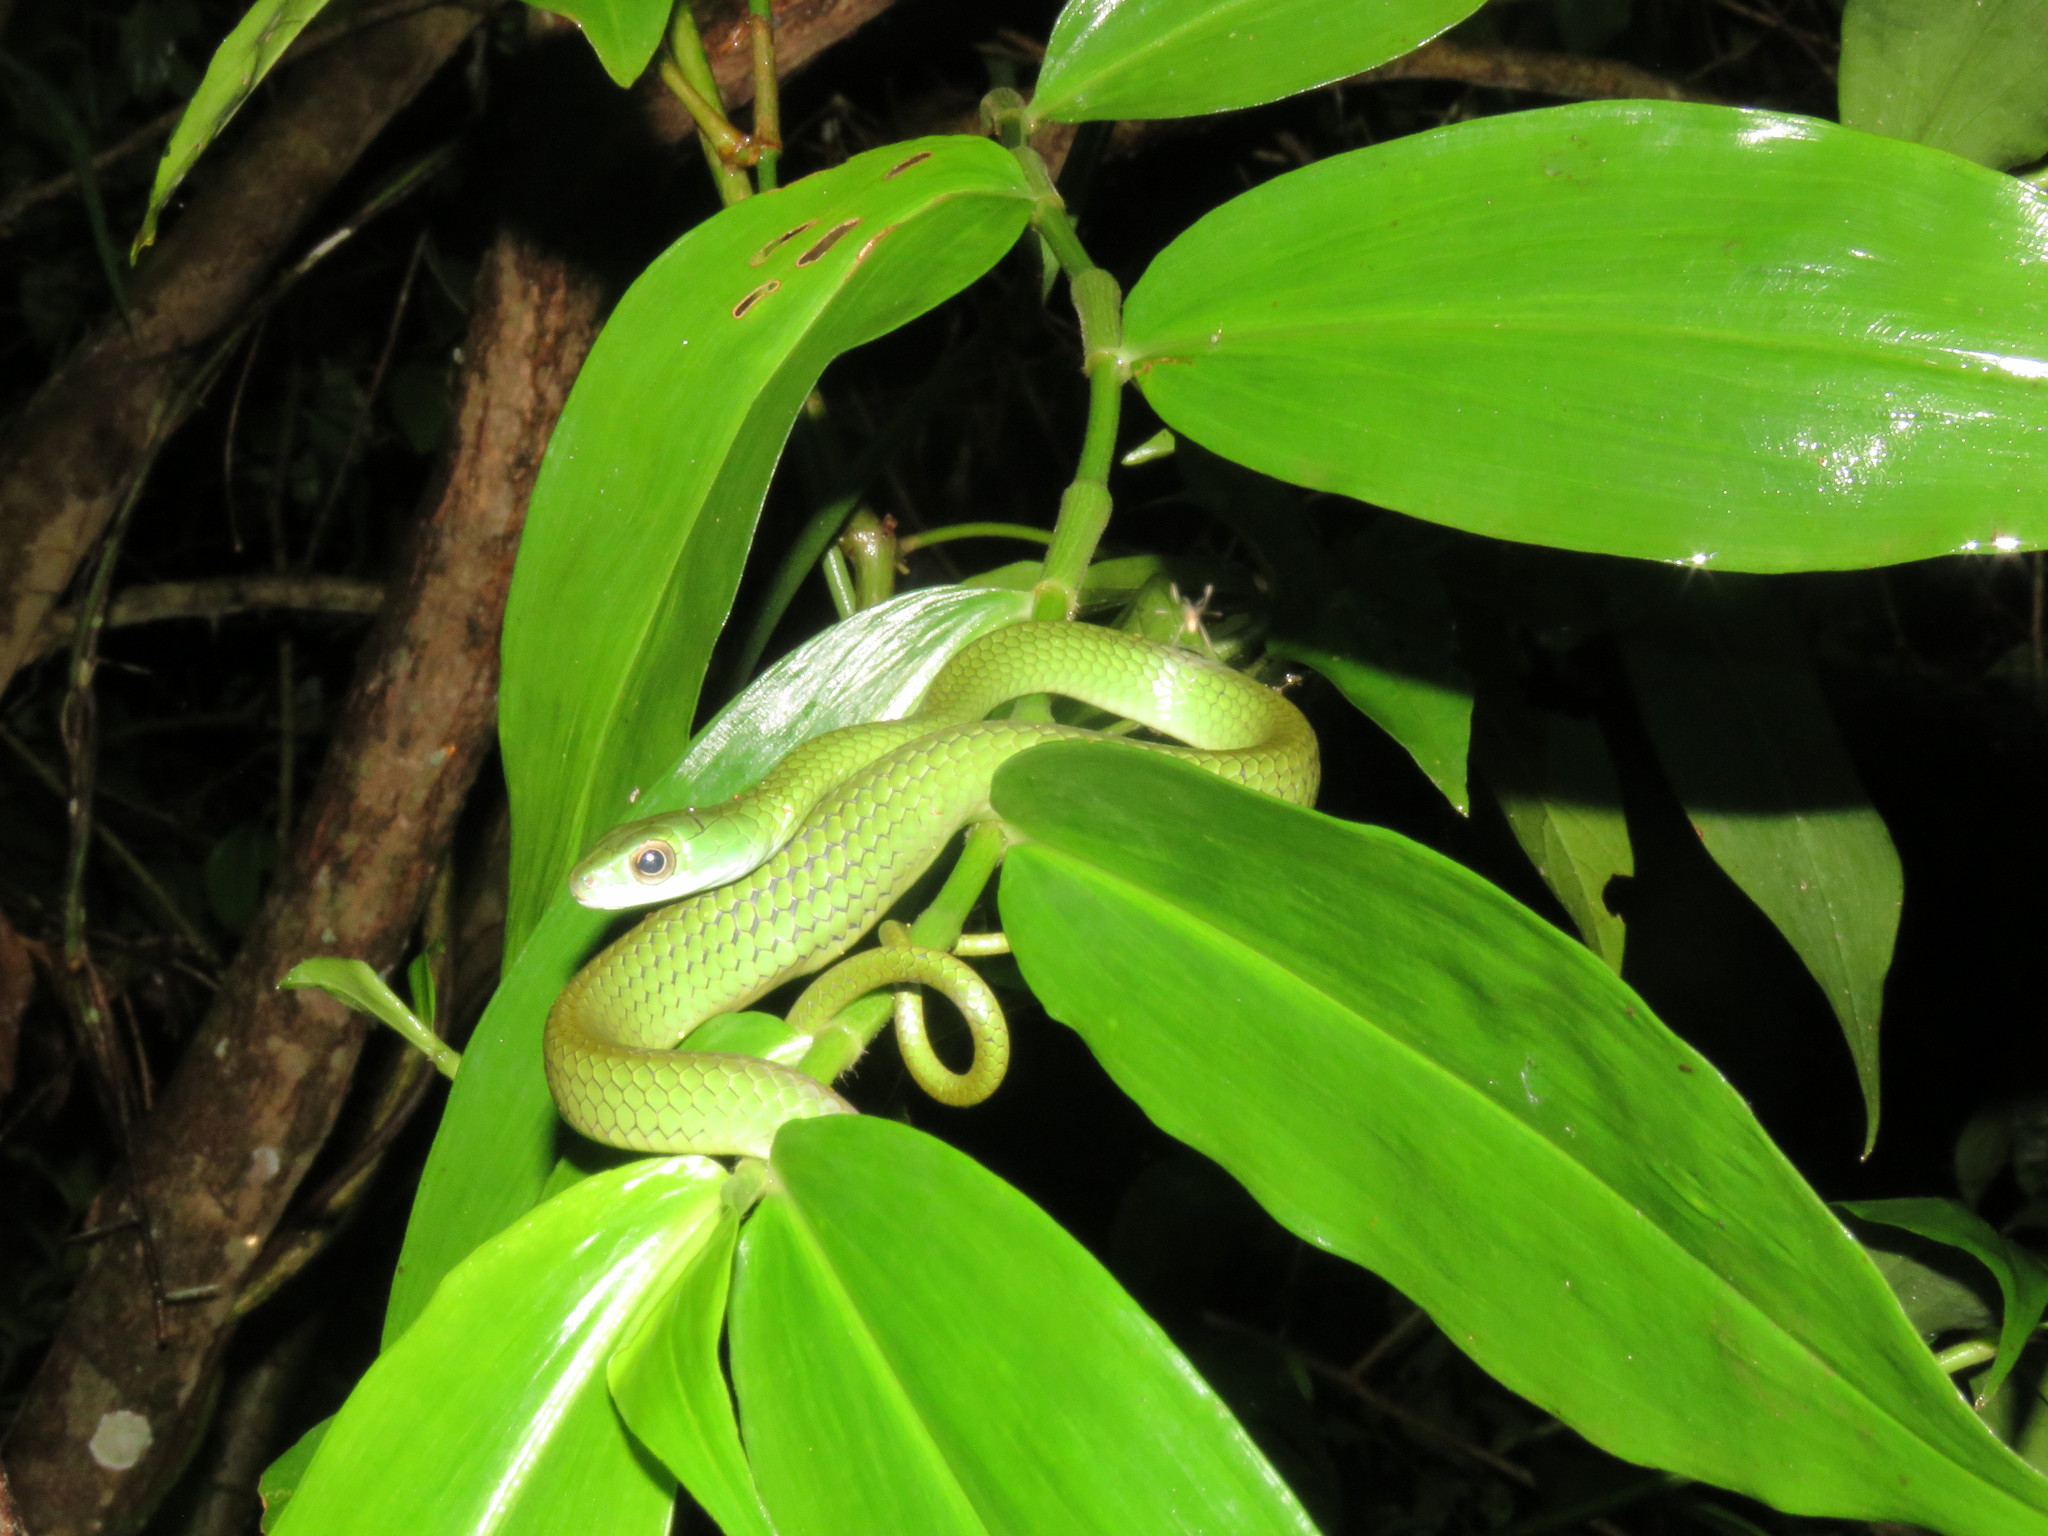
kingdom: Animalia
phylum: Chordata
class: Squamata
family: Colubridae
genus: Chironius
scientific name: Chironius scurrulus
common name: Wagler's sipo
